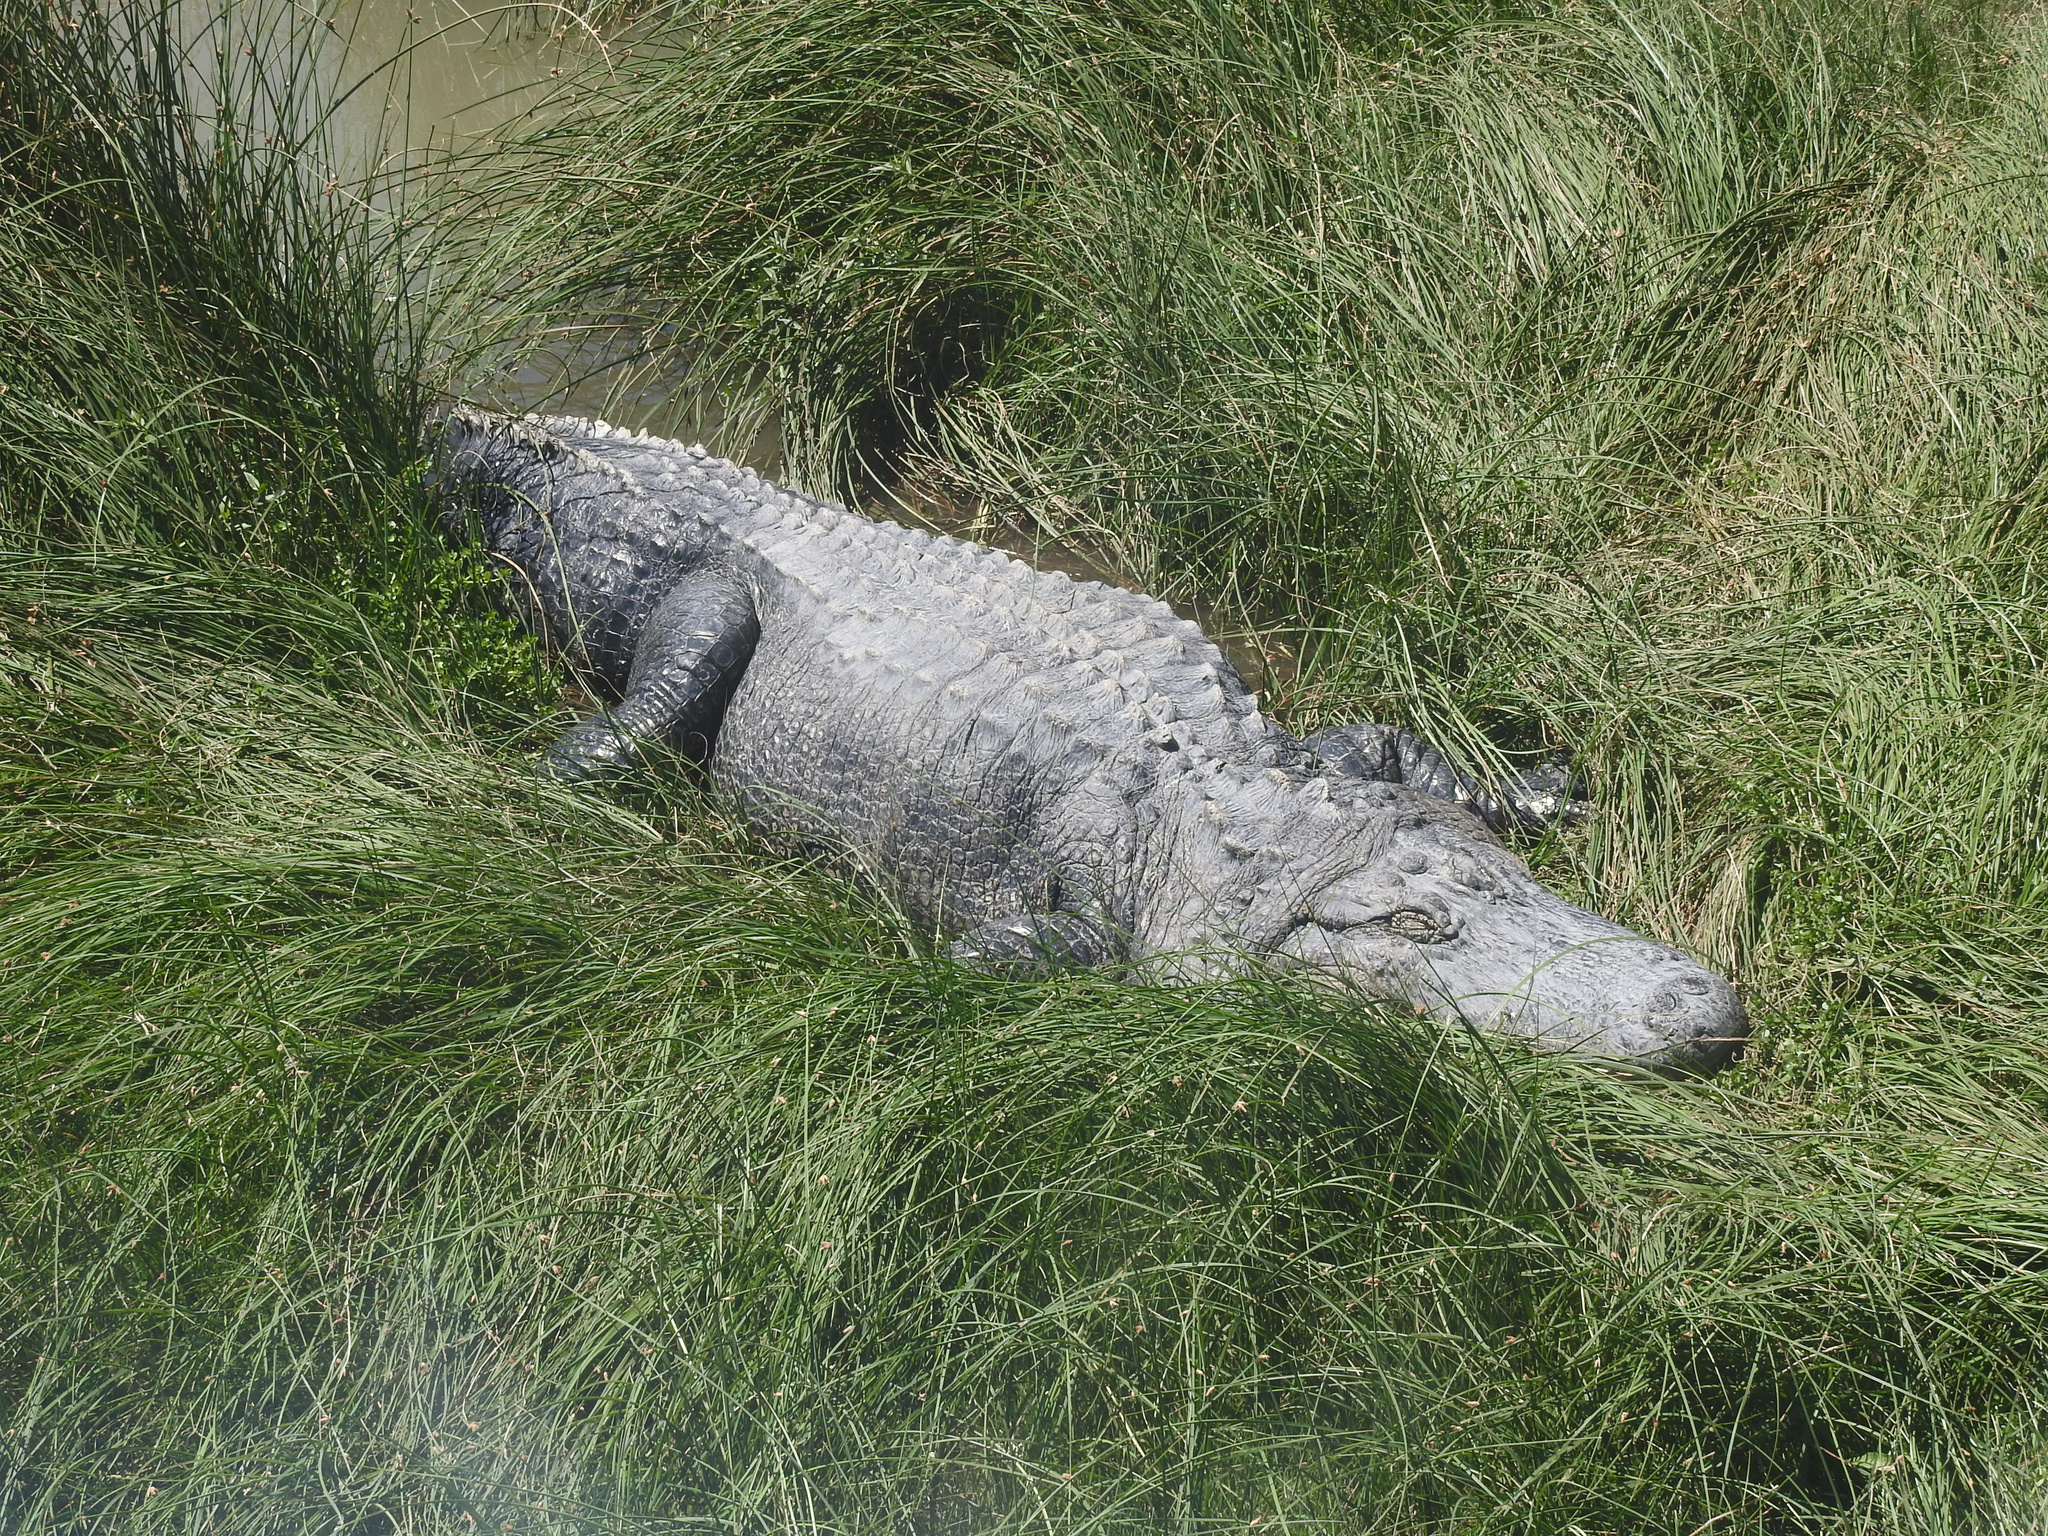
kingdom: Animalia
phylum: Chordata
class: Crocodylia
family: Alligatoridae
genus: Alligator
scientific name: Alligator mississippiensis
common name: American alligator
